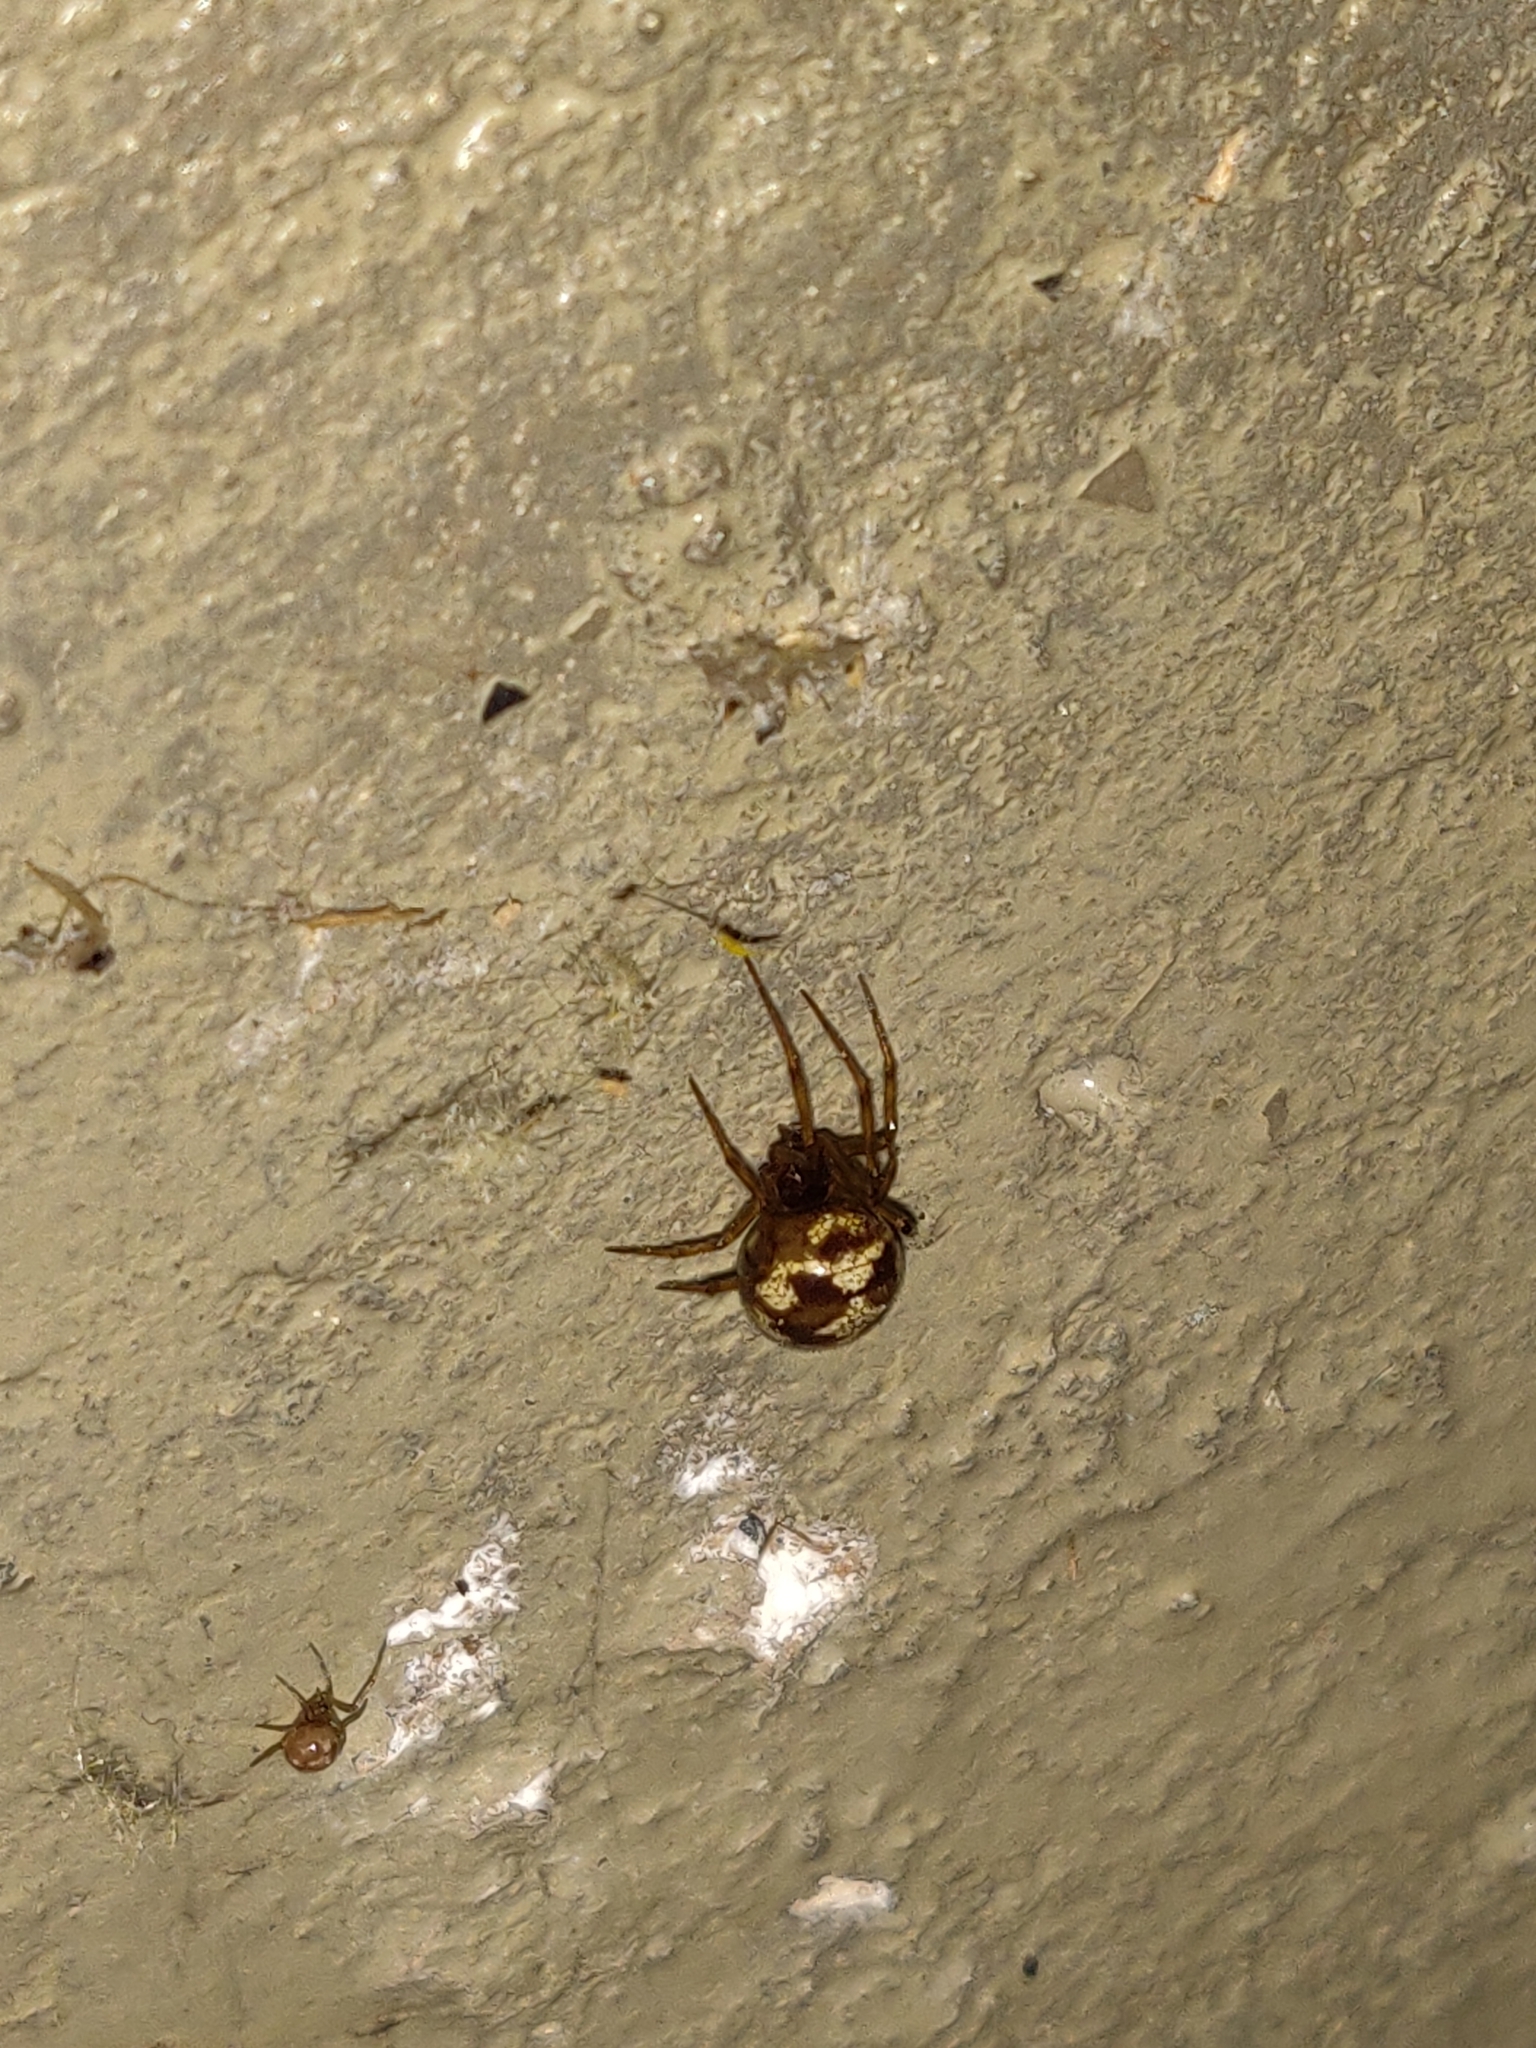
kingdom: Animalia
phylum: Arthropoda
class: Arachnida
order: Araneae
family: Theridiidae
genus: Steatoda
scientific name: Steatoda triangulosa
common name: Triangulate bud spider
